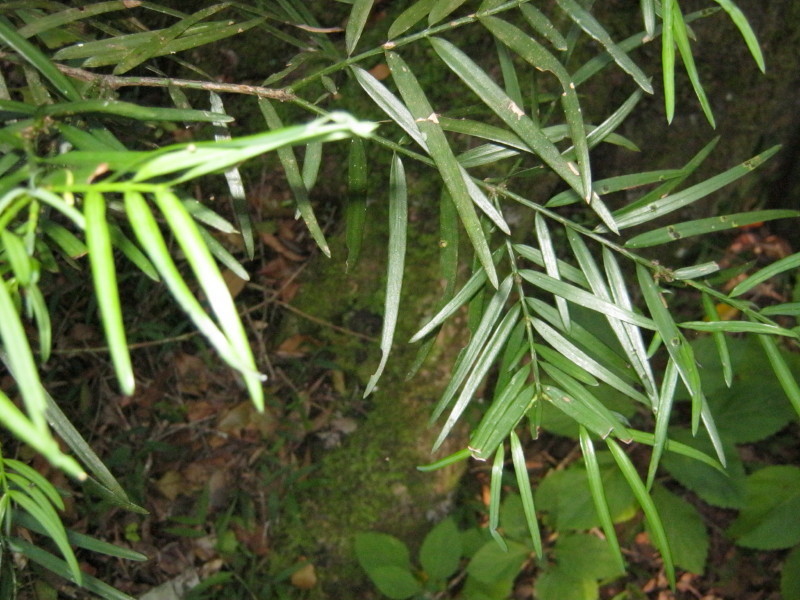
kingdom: Plantae
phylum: Tracheophyta
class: Pinopsida
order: Pinales
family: Podocarpaceae
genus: Afrocarpus
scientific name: Afrocarpus falcatus
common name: Bastard yellowwood
